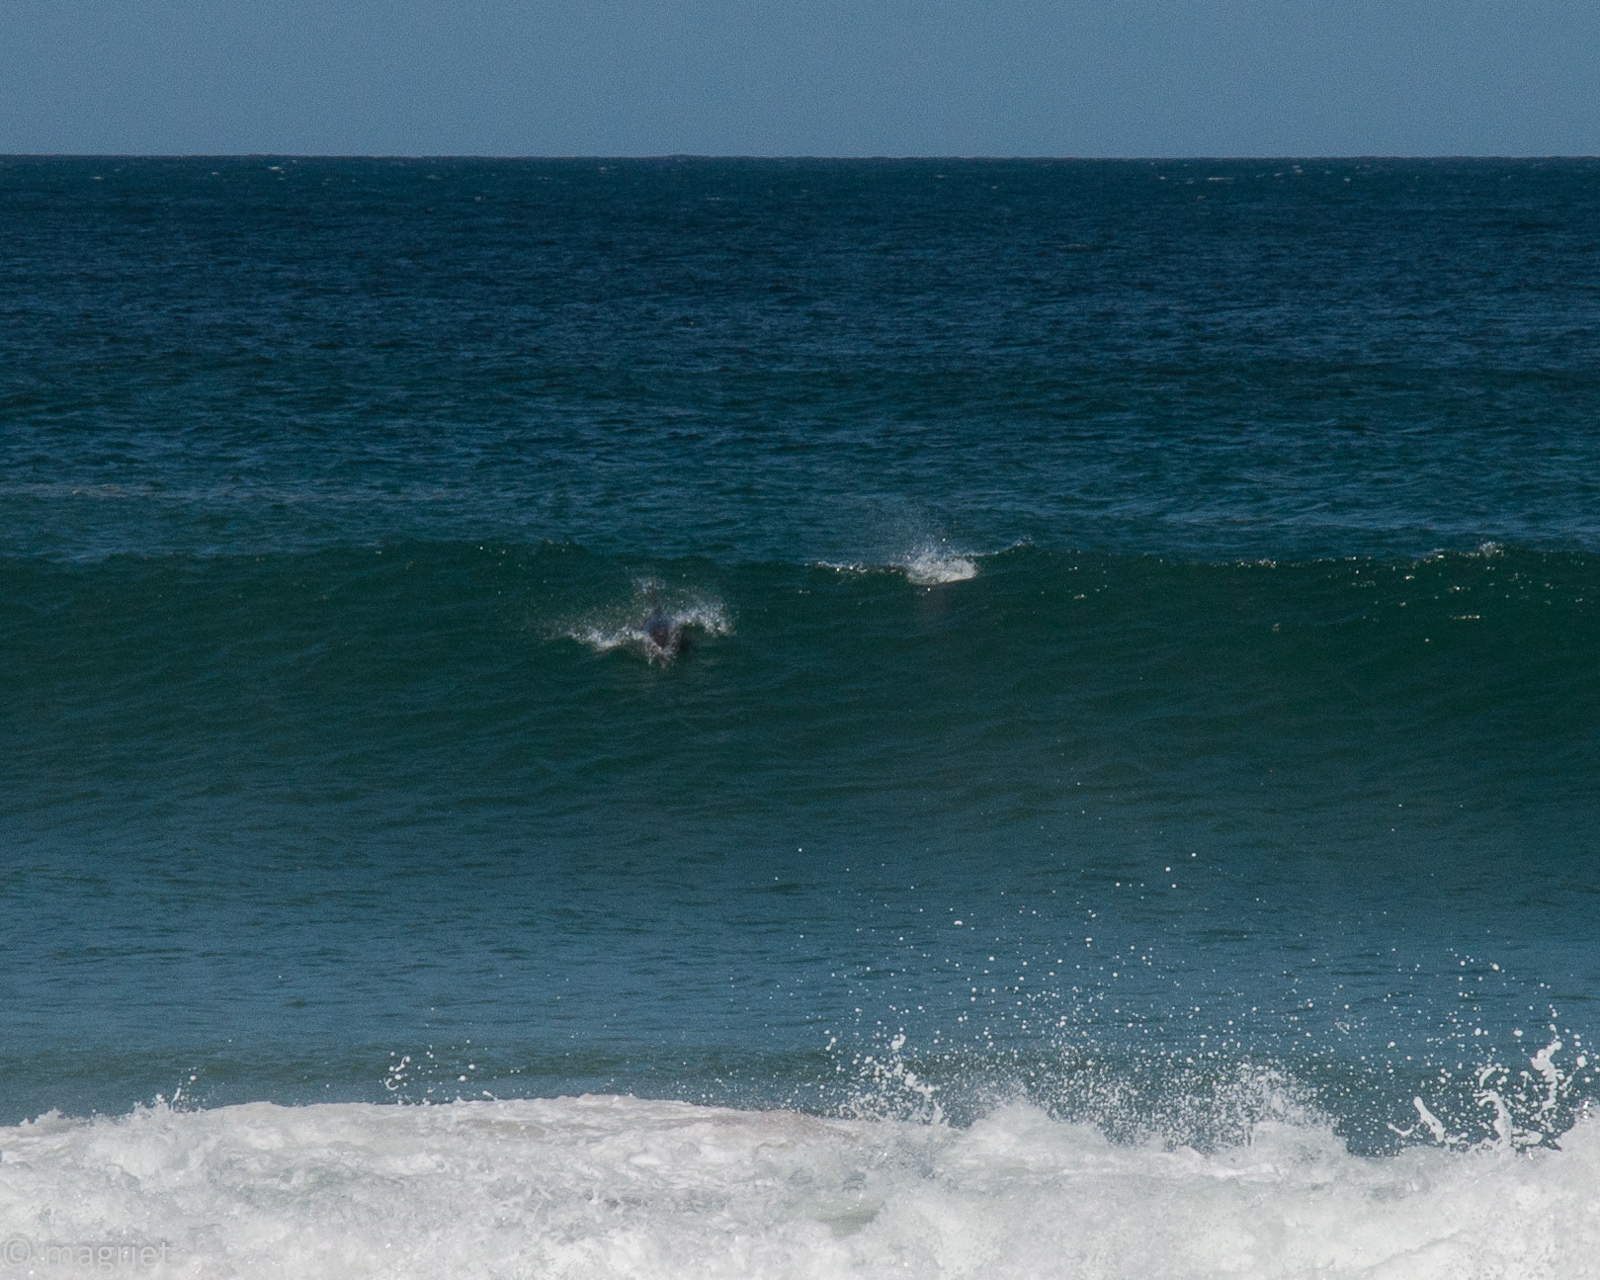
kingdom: Animalia
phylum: Chordata
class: Mammalia
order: Cetacea
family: Delphinidae
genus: Tursiops
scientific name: Tursiops truncatus
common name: Bottlenose dolphin
